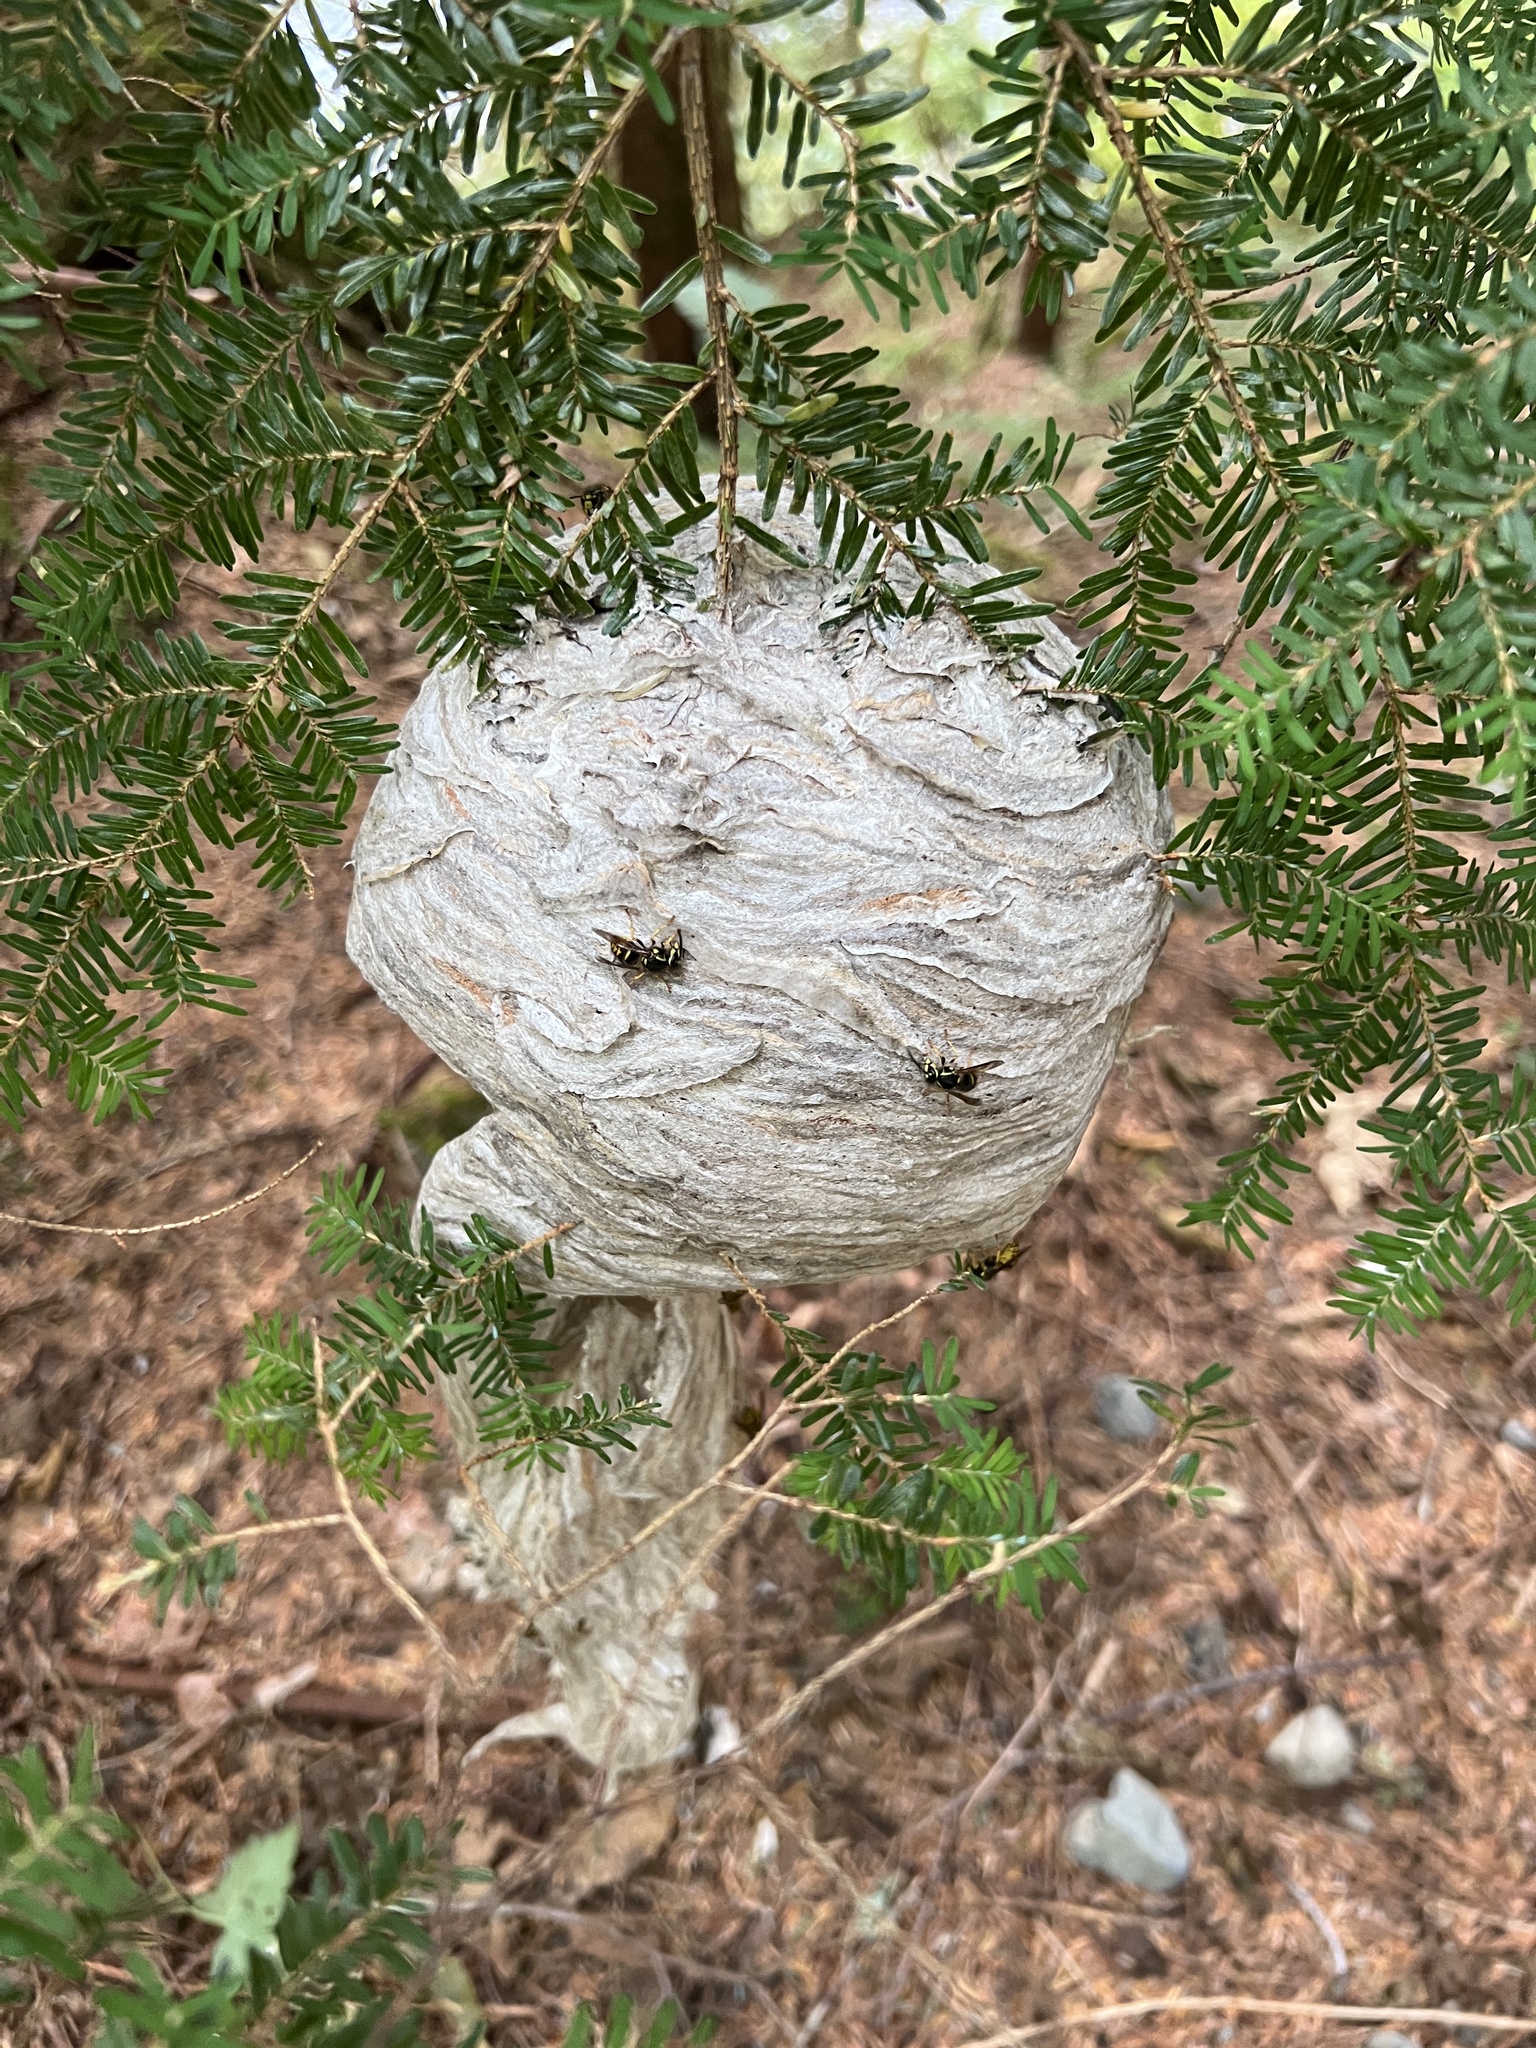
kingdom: Animalia
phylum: Arthropoda
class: Insecta
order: Hymenoptera
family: Vespidae
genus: Dolichovespula
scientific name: Dolichovespula arenaria
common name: Aerial yellowjacket
